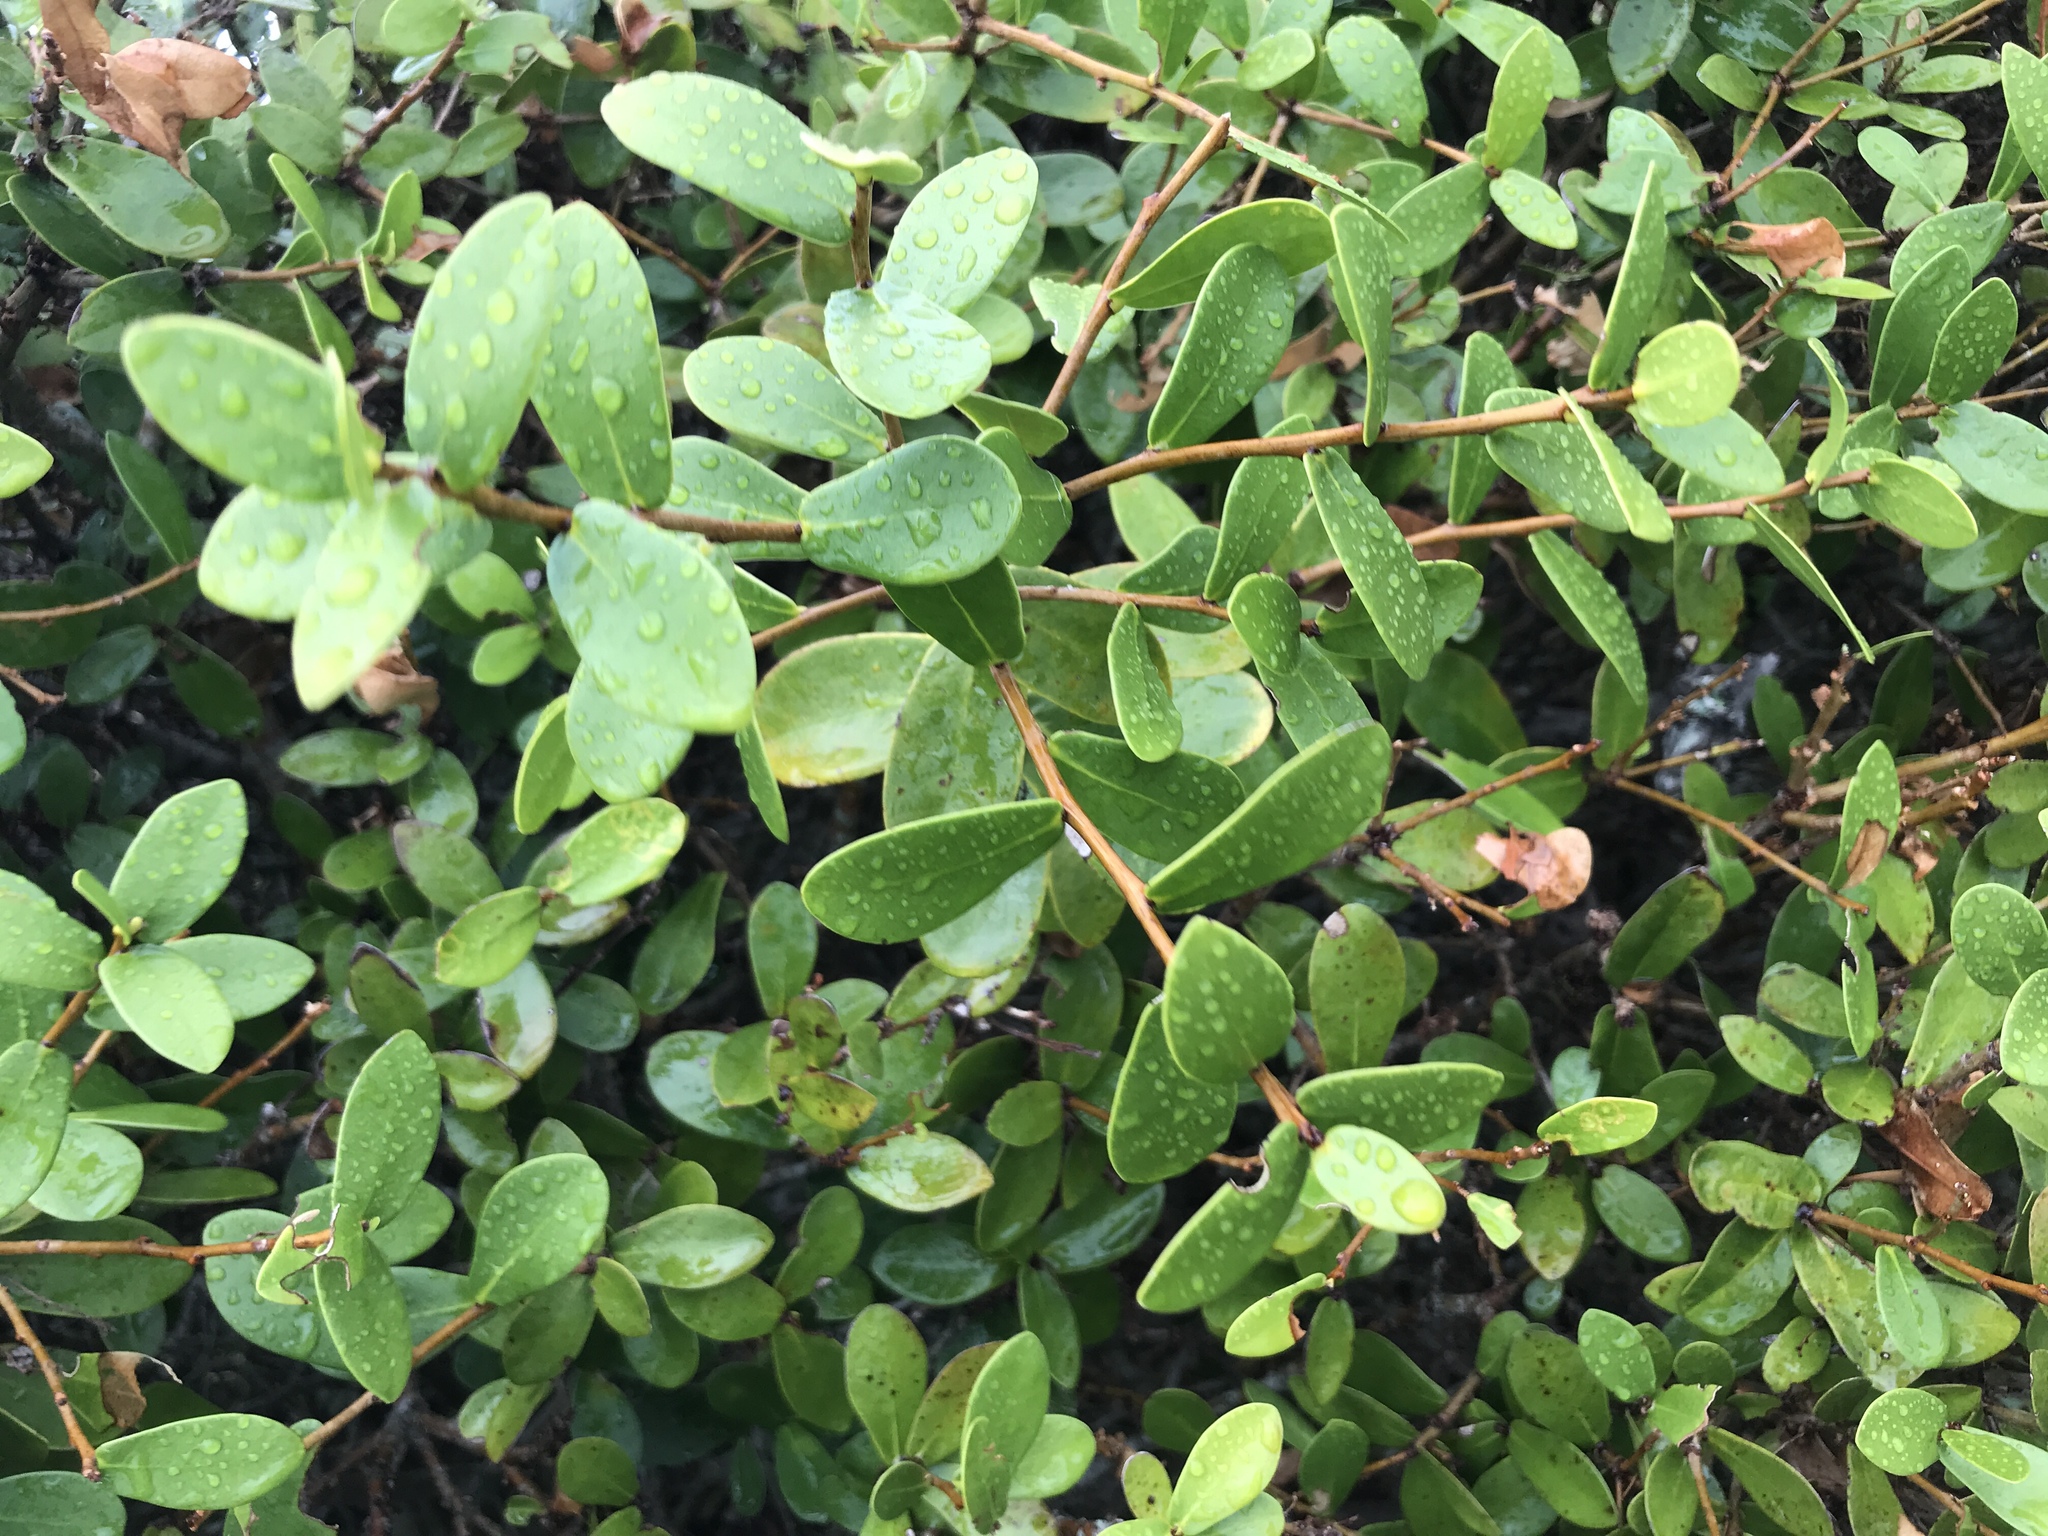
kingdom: Plantae
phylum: Tracheophyta
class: Magnoliopsida
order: Malvales
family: Thymelaeaceae
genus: Daphnopsis
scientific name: Daphnopsis racemosa
